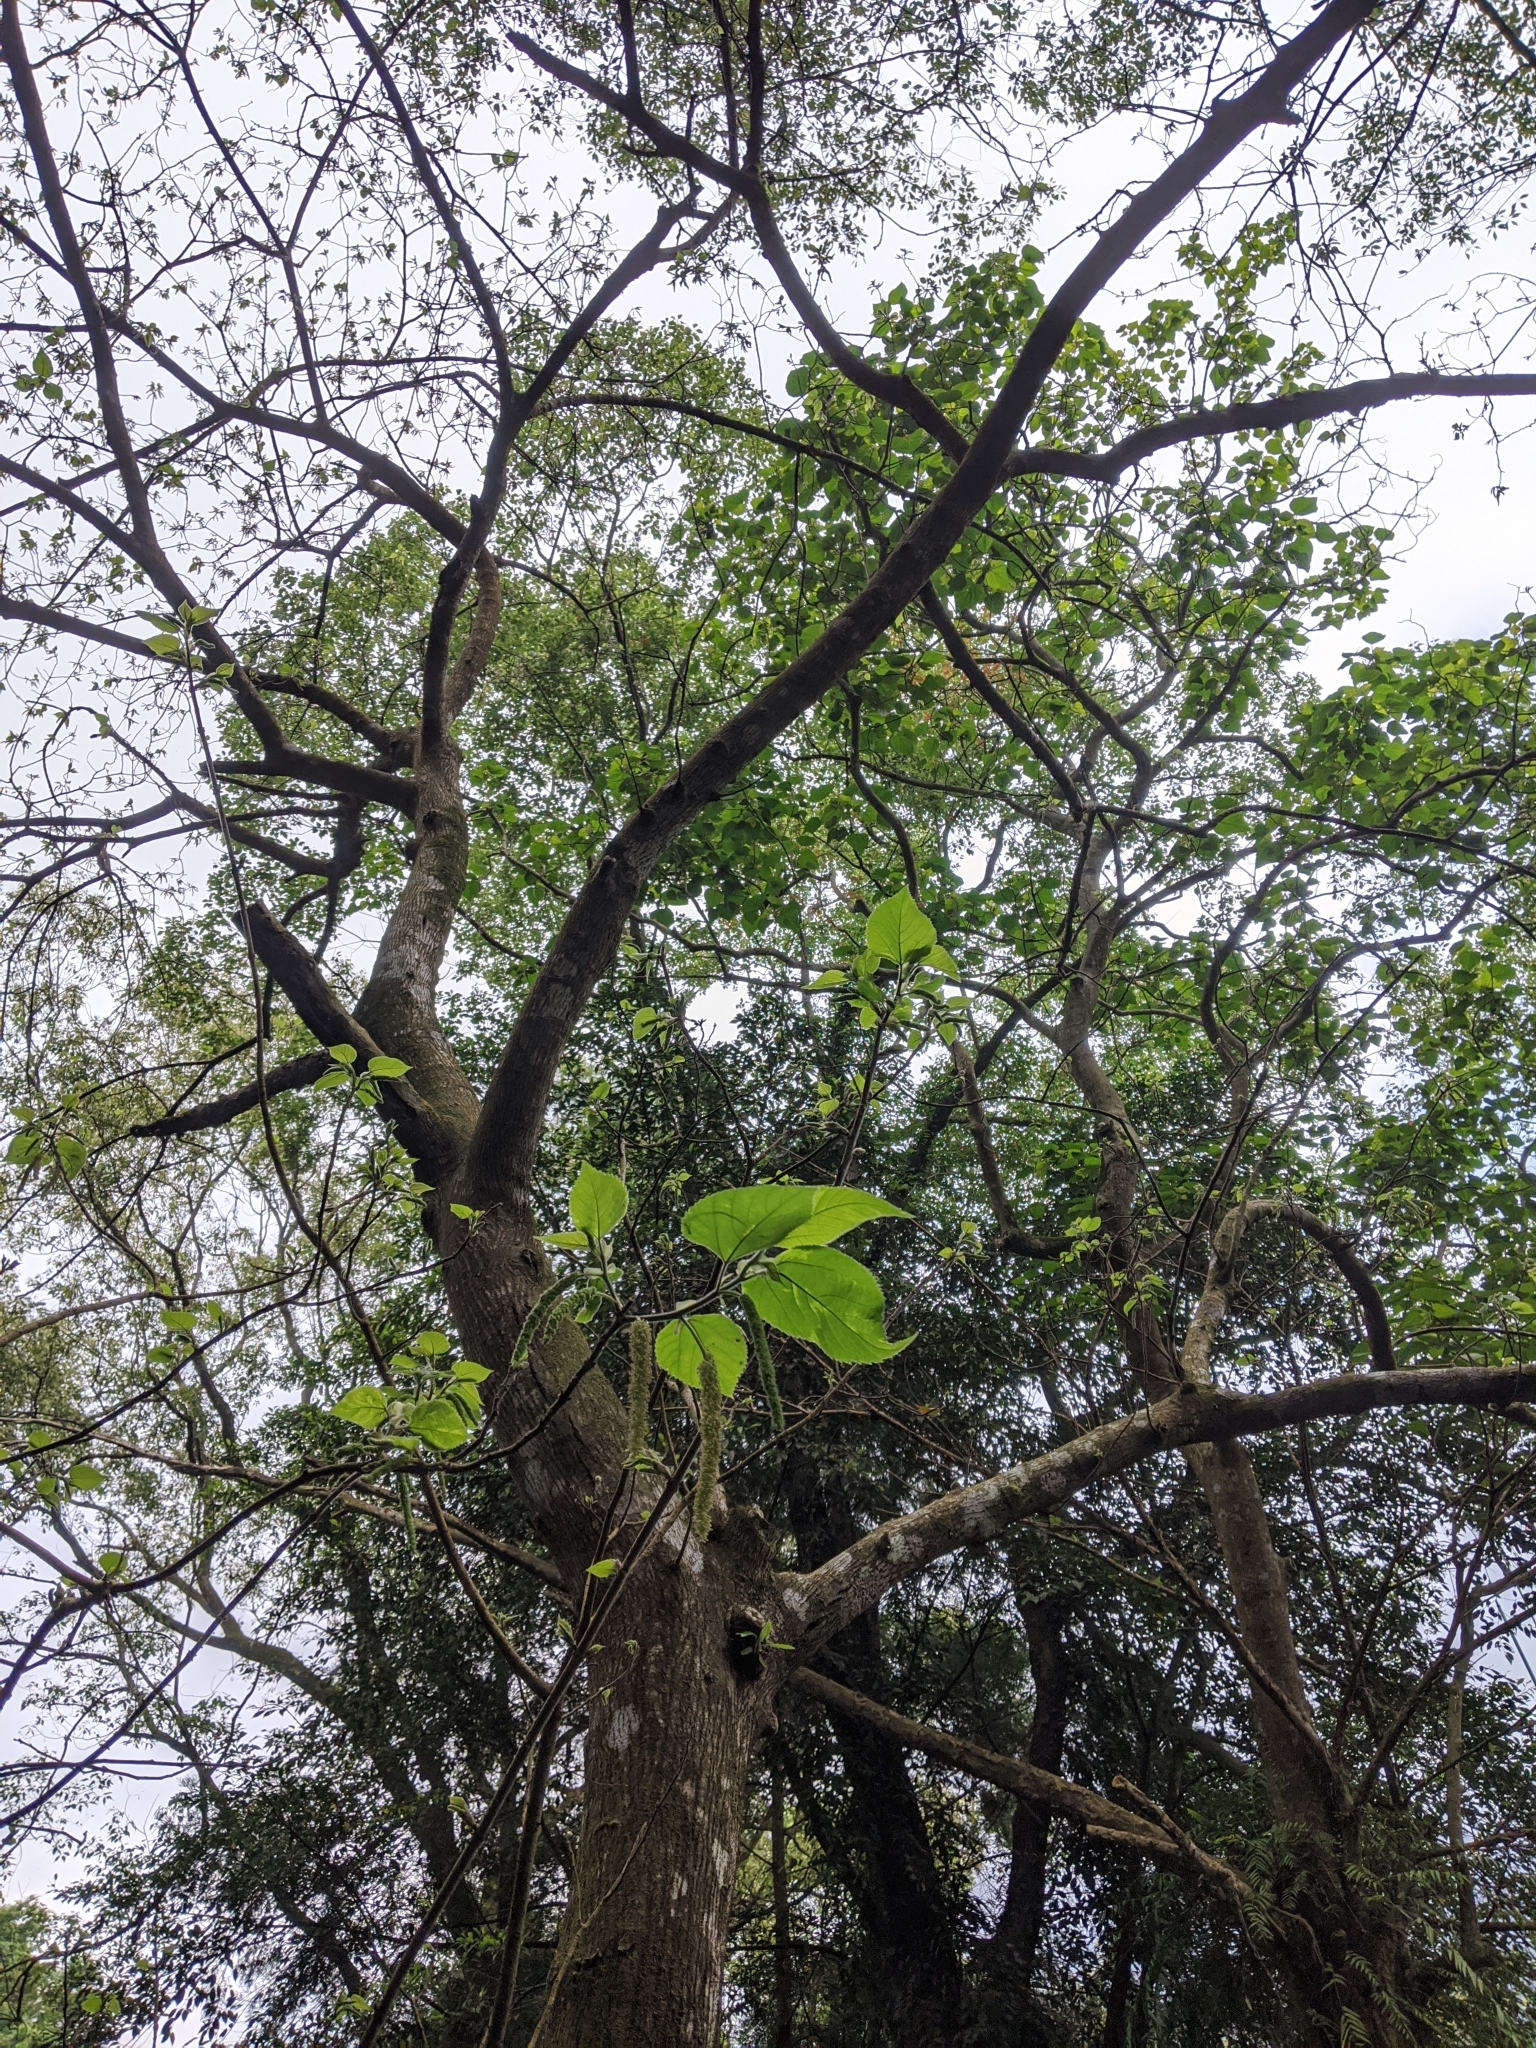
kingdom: Plantae
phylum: Tracheophyta
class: Magnoliopsida
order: Rosales
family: Moraceae
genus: Broussonetia
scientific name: Broussonetia papyrifera
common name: Paper mulberry
